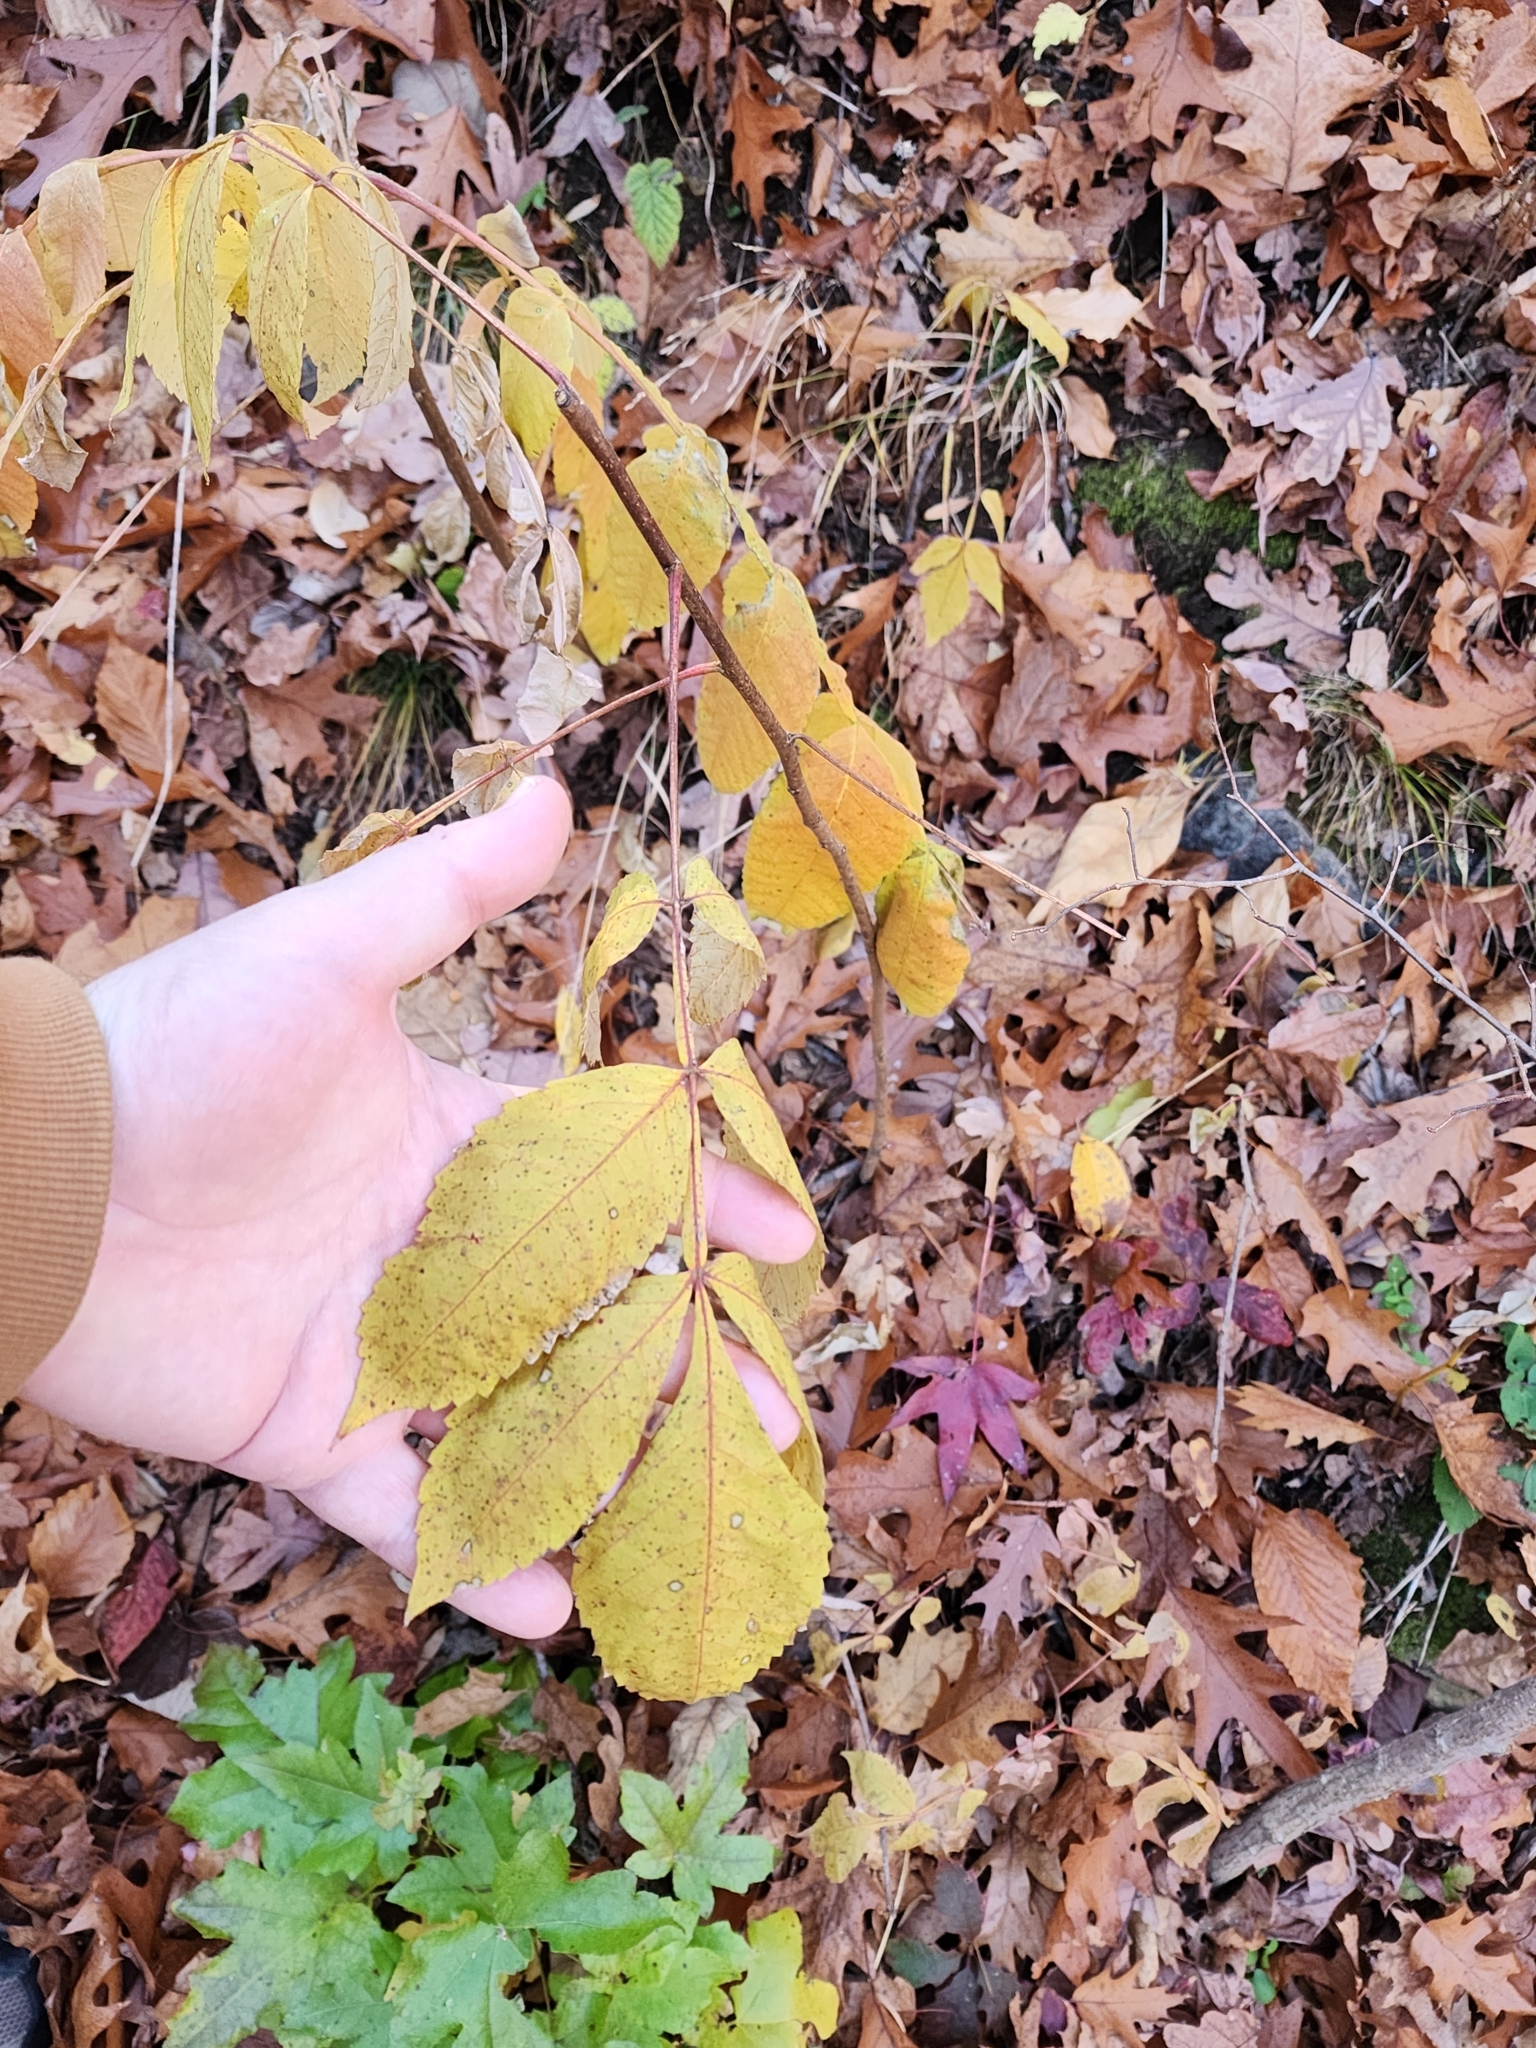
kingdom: Plantae
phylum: Tracheophyta
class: Magnoliopsida
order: Sapindales
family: Anacardiaceae
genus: Rhus
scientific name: Rhus chinensis
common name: Chinese gall
